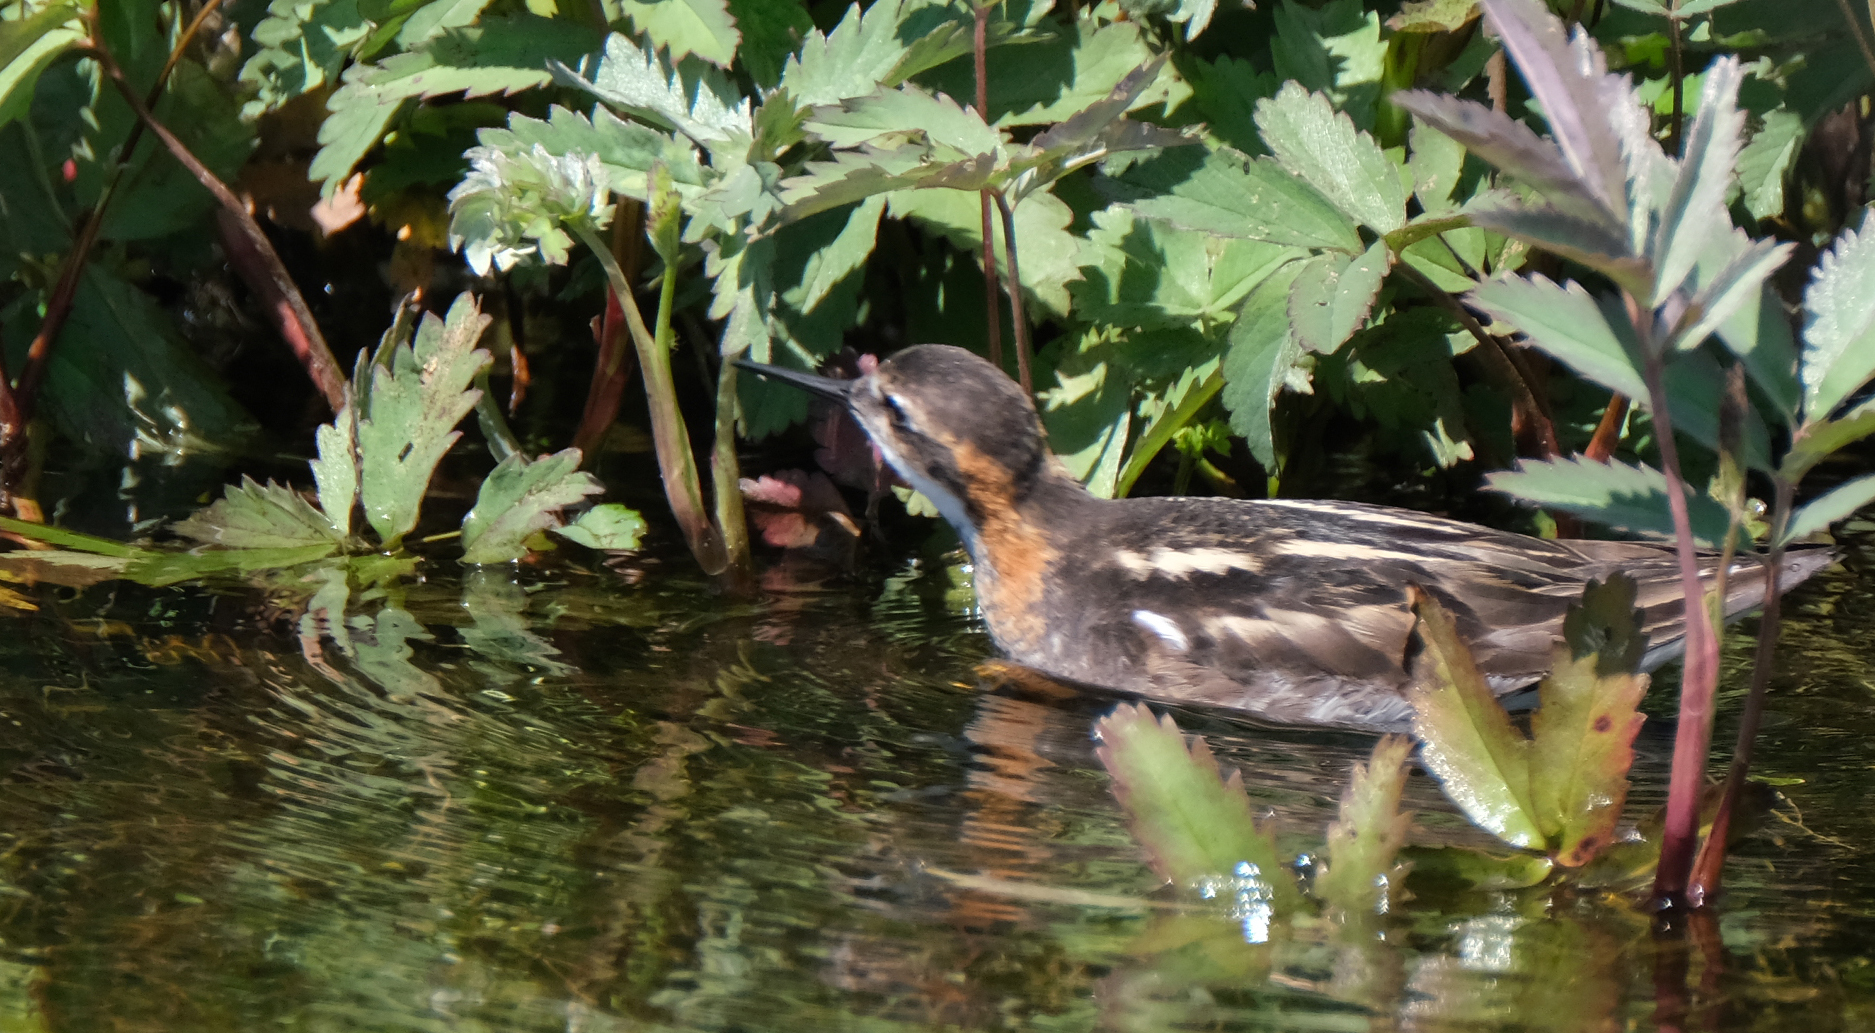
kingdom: Animalia
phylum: Chordata
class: Aves
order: Charadriiformes
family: Scolopacidae
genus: Phalaropus
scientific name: Phalaropus lobatus
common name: Red-necked phalarope
